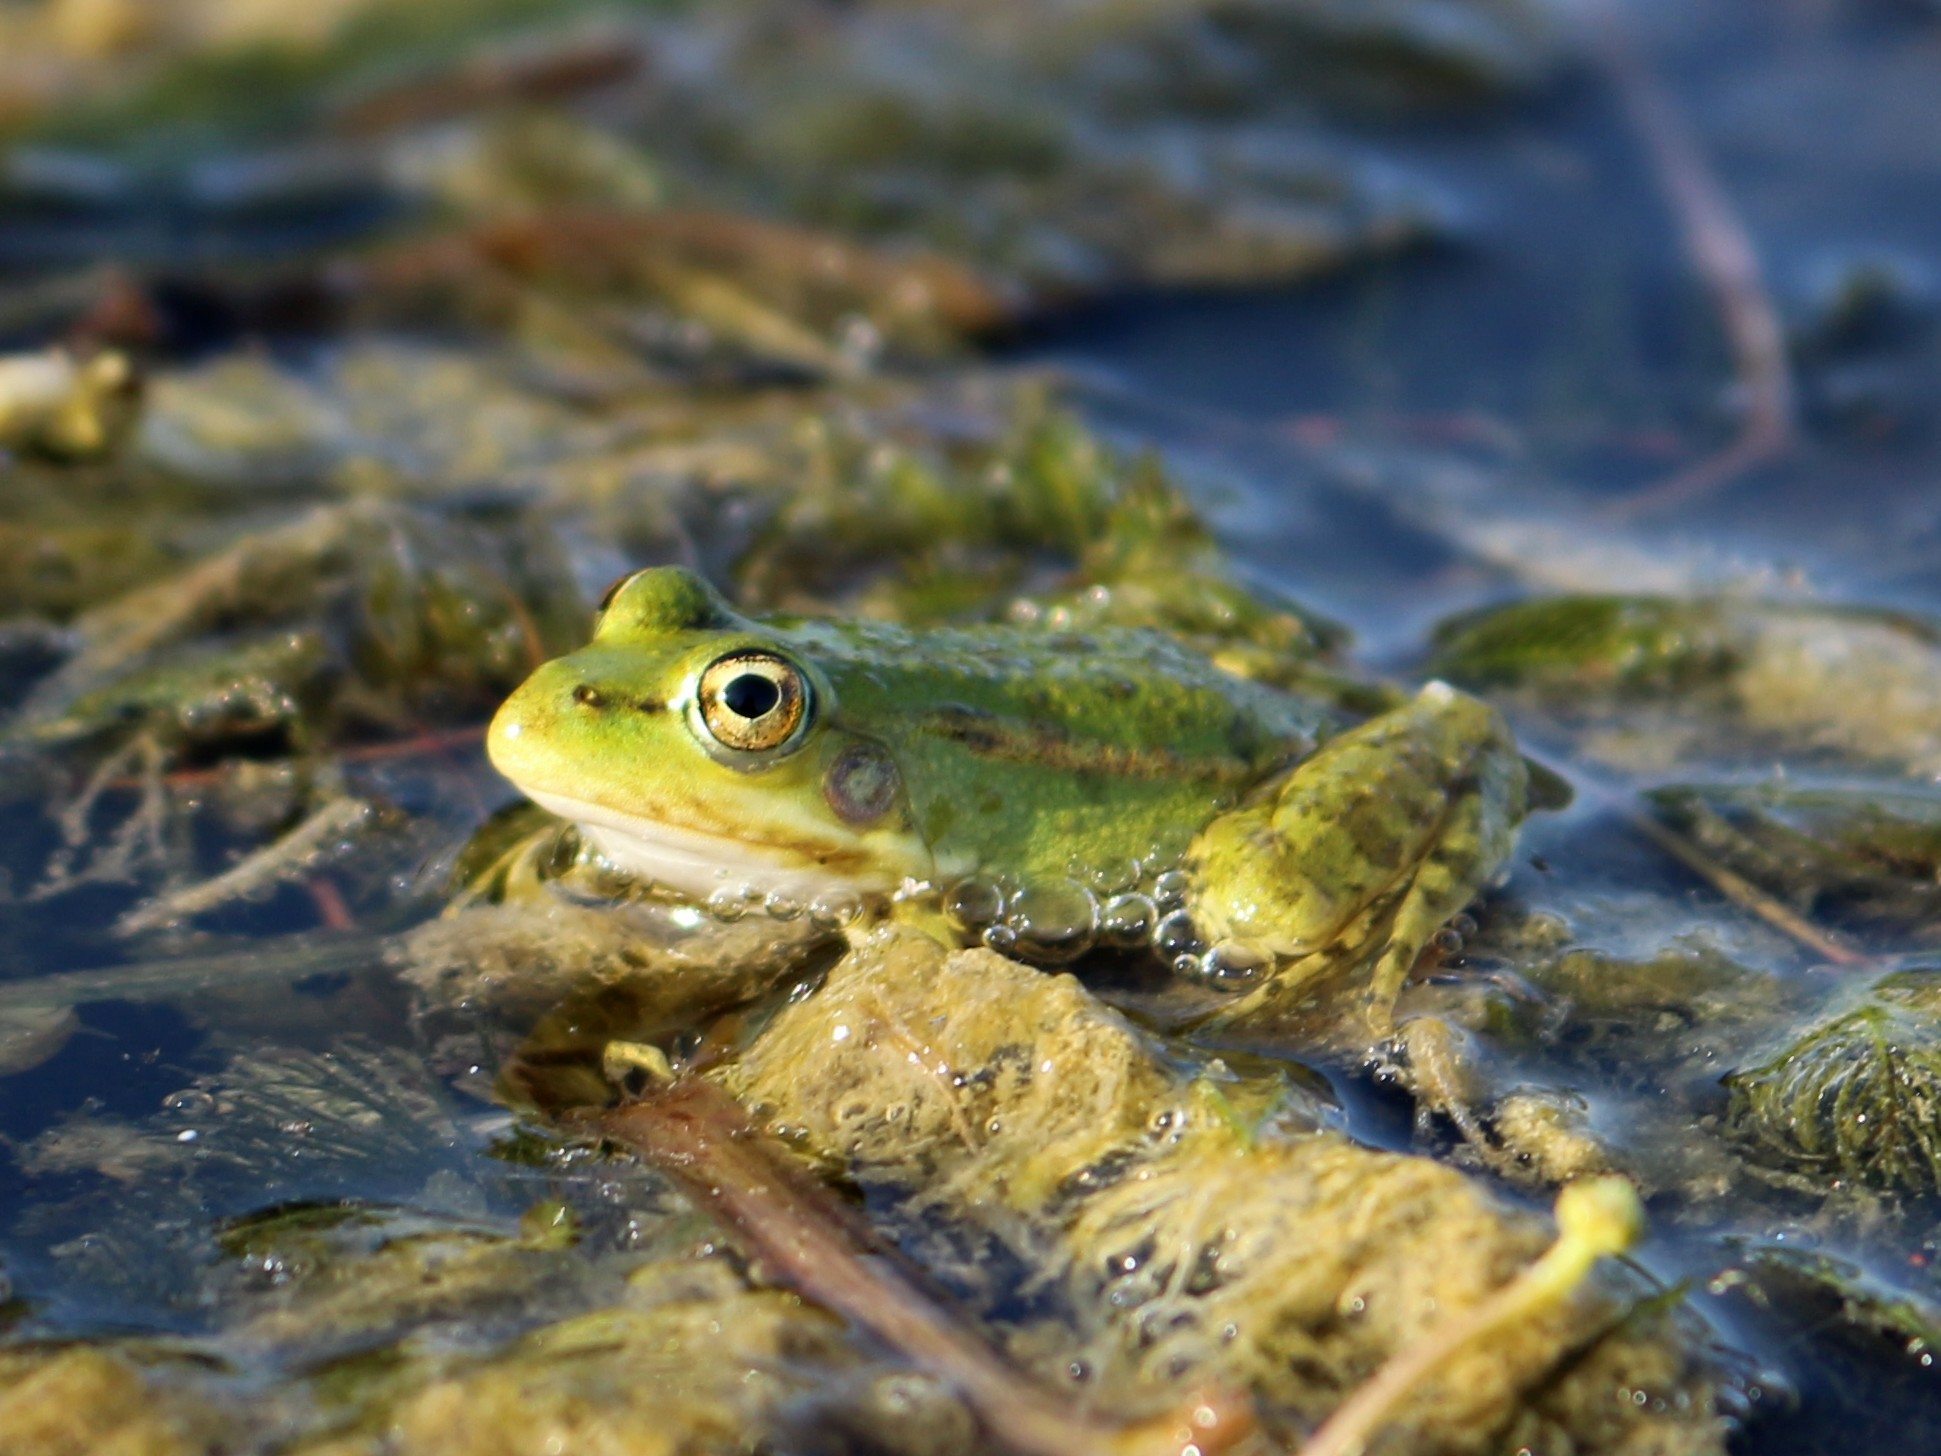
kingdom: Animalia
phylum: Chordata
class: Amphibia
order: Anura
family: Ranidae
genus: Pelophylax
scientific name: Pelophylax ridibundus
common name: Marsh frog
